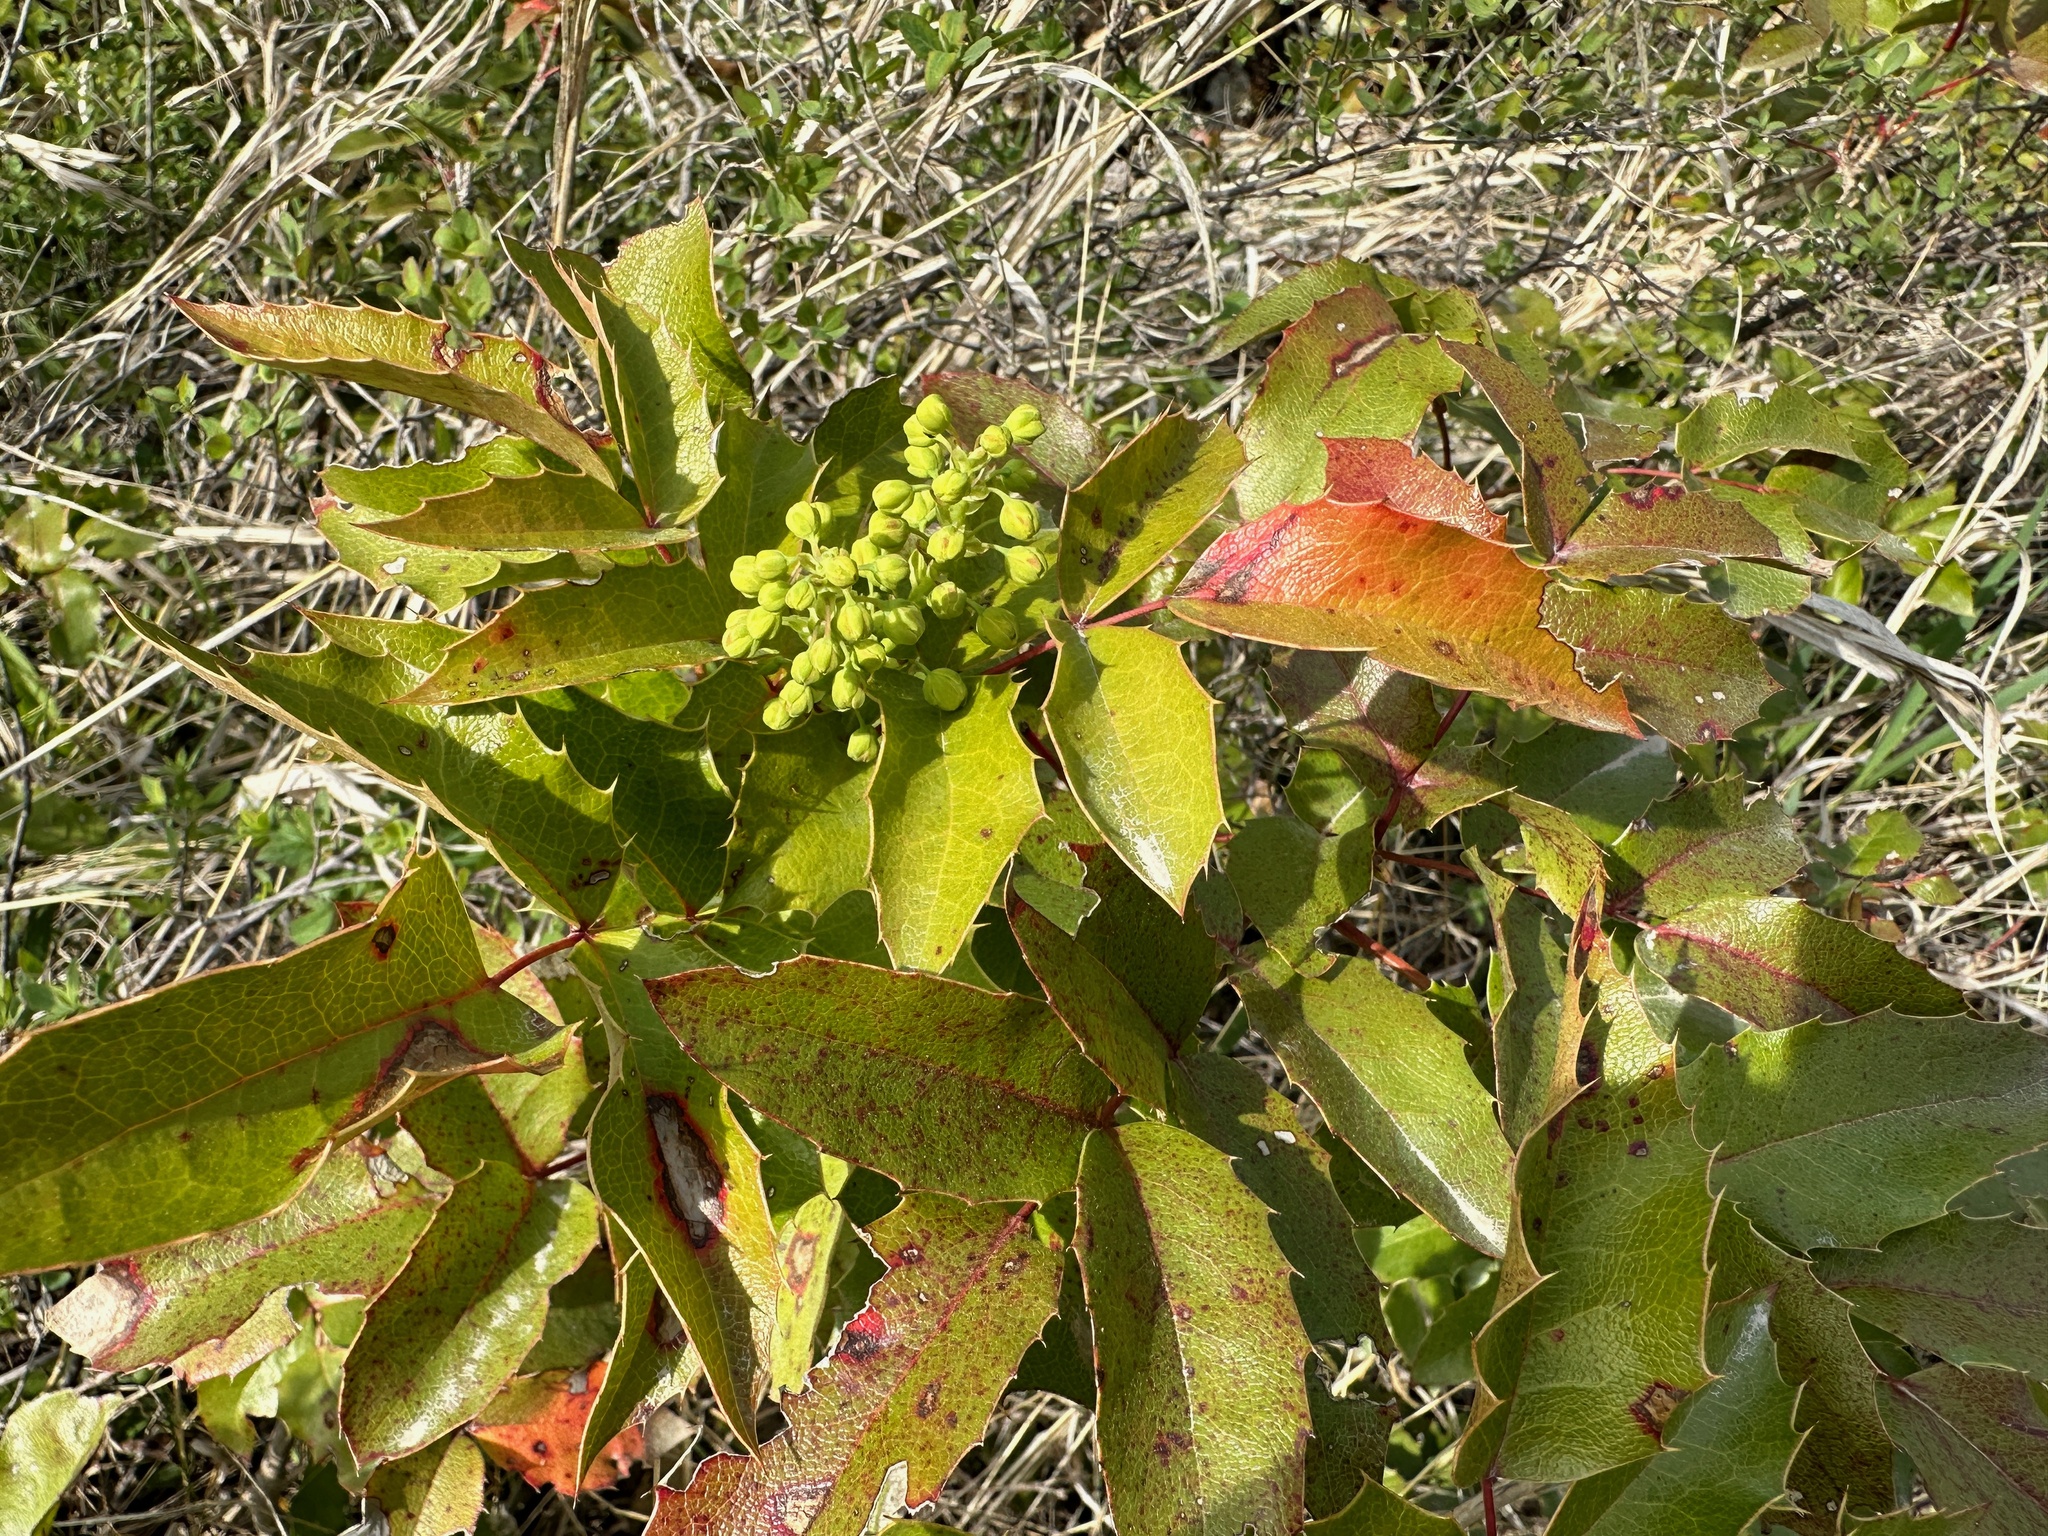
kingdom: Plantae
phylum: Tracheophyta
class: Magnoliopsida
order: Ranunculales
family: Berberidaceae
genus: Mahonia
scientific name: Mahonia aquifolium
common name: Oregon-grape
